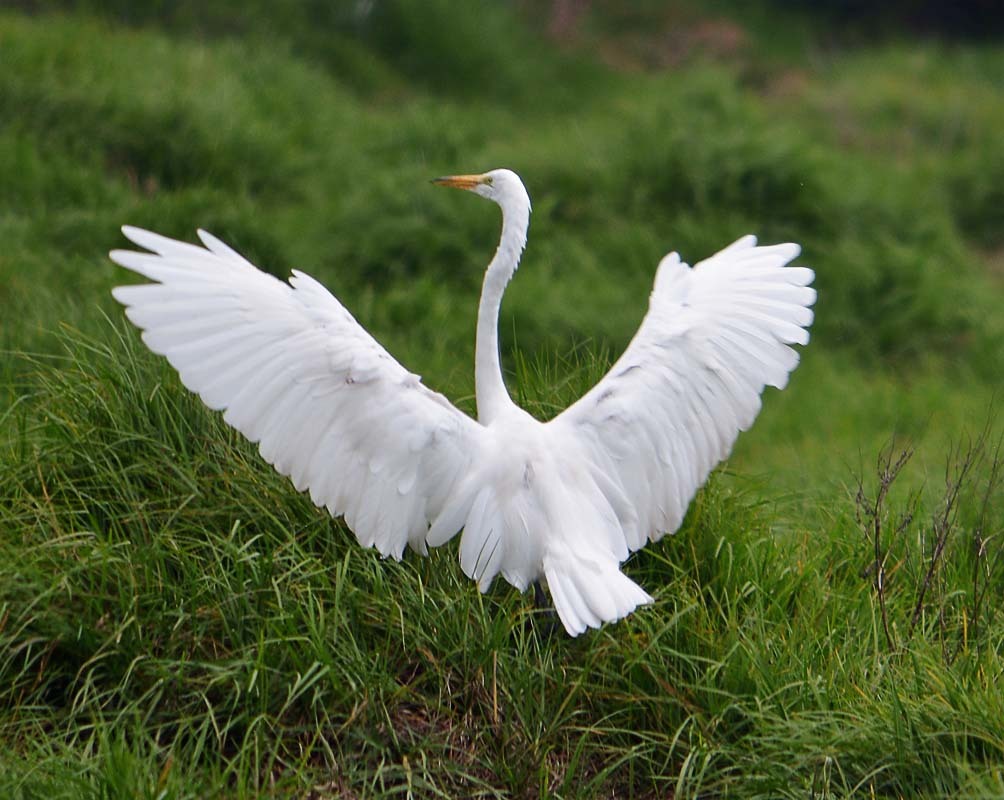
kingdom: Animalia
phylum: Chordata
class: Aves
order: Pelecaniformes
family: Ardeidae
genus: Ardea
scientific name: Ardea alba
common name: Great egret
